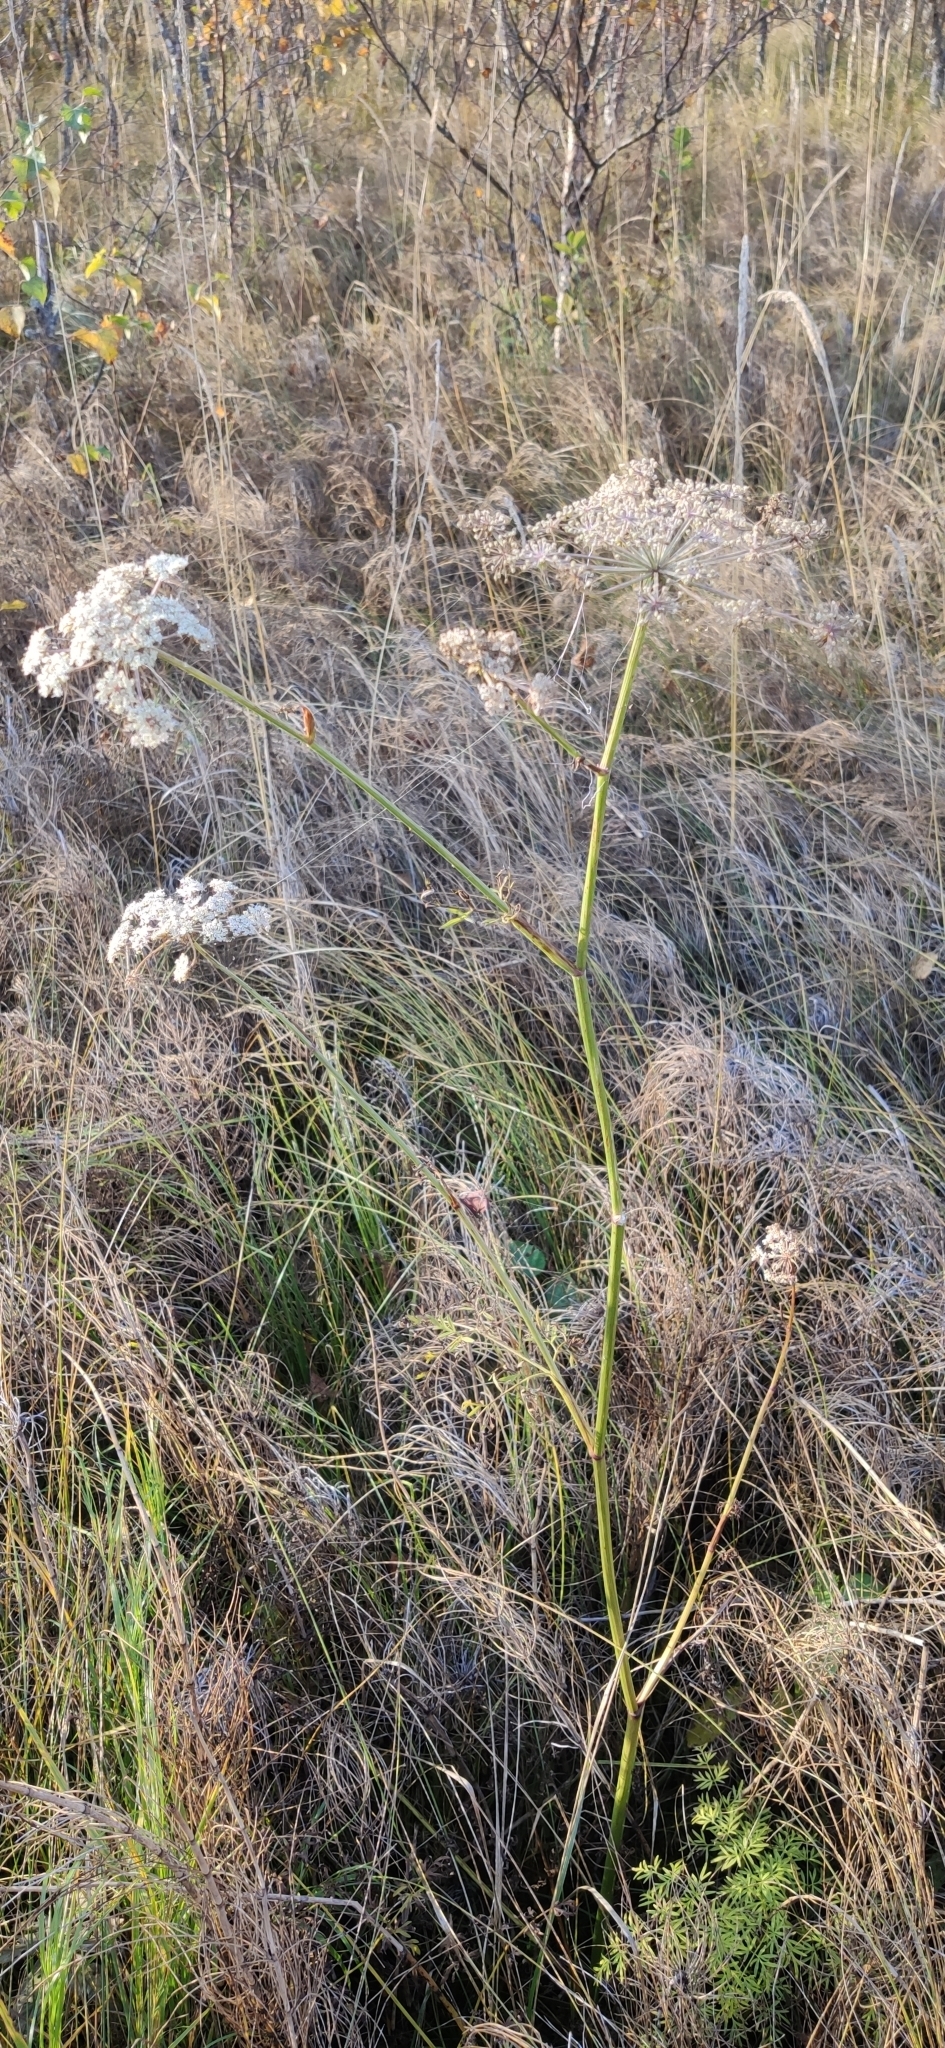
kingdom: Plantae
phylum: Tracheophyta
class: Magnoliopsida
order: Apiales
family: Apiaceae
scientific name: Apiaceae
